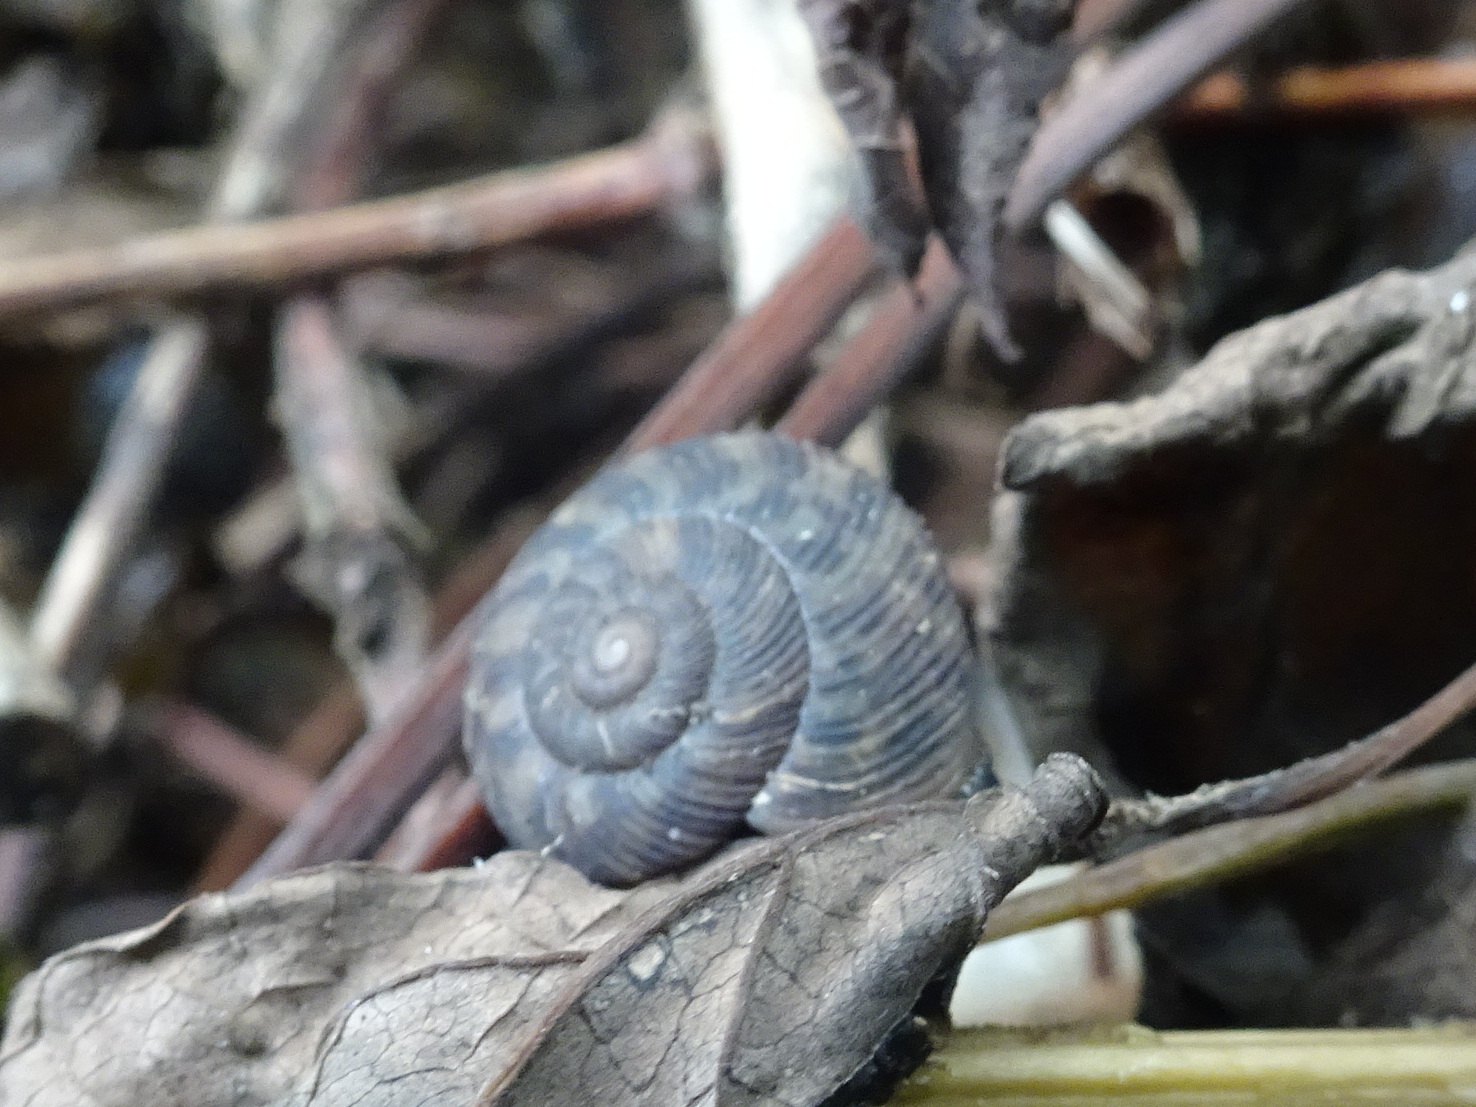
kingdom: Animalia
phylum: Mollusca
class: Gastropoda
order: Stylommatophora
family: Discidae
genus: Anguispira
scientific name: Anguispira alternata
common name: Flamed tigersnail
